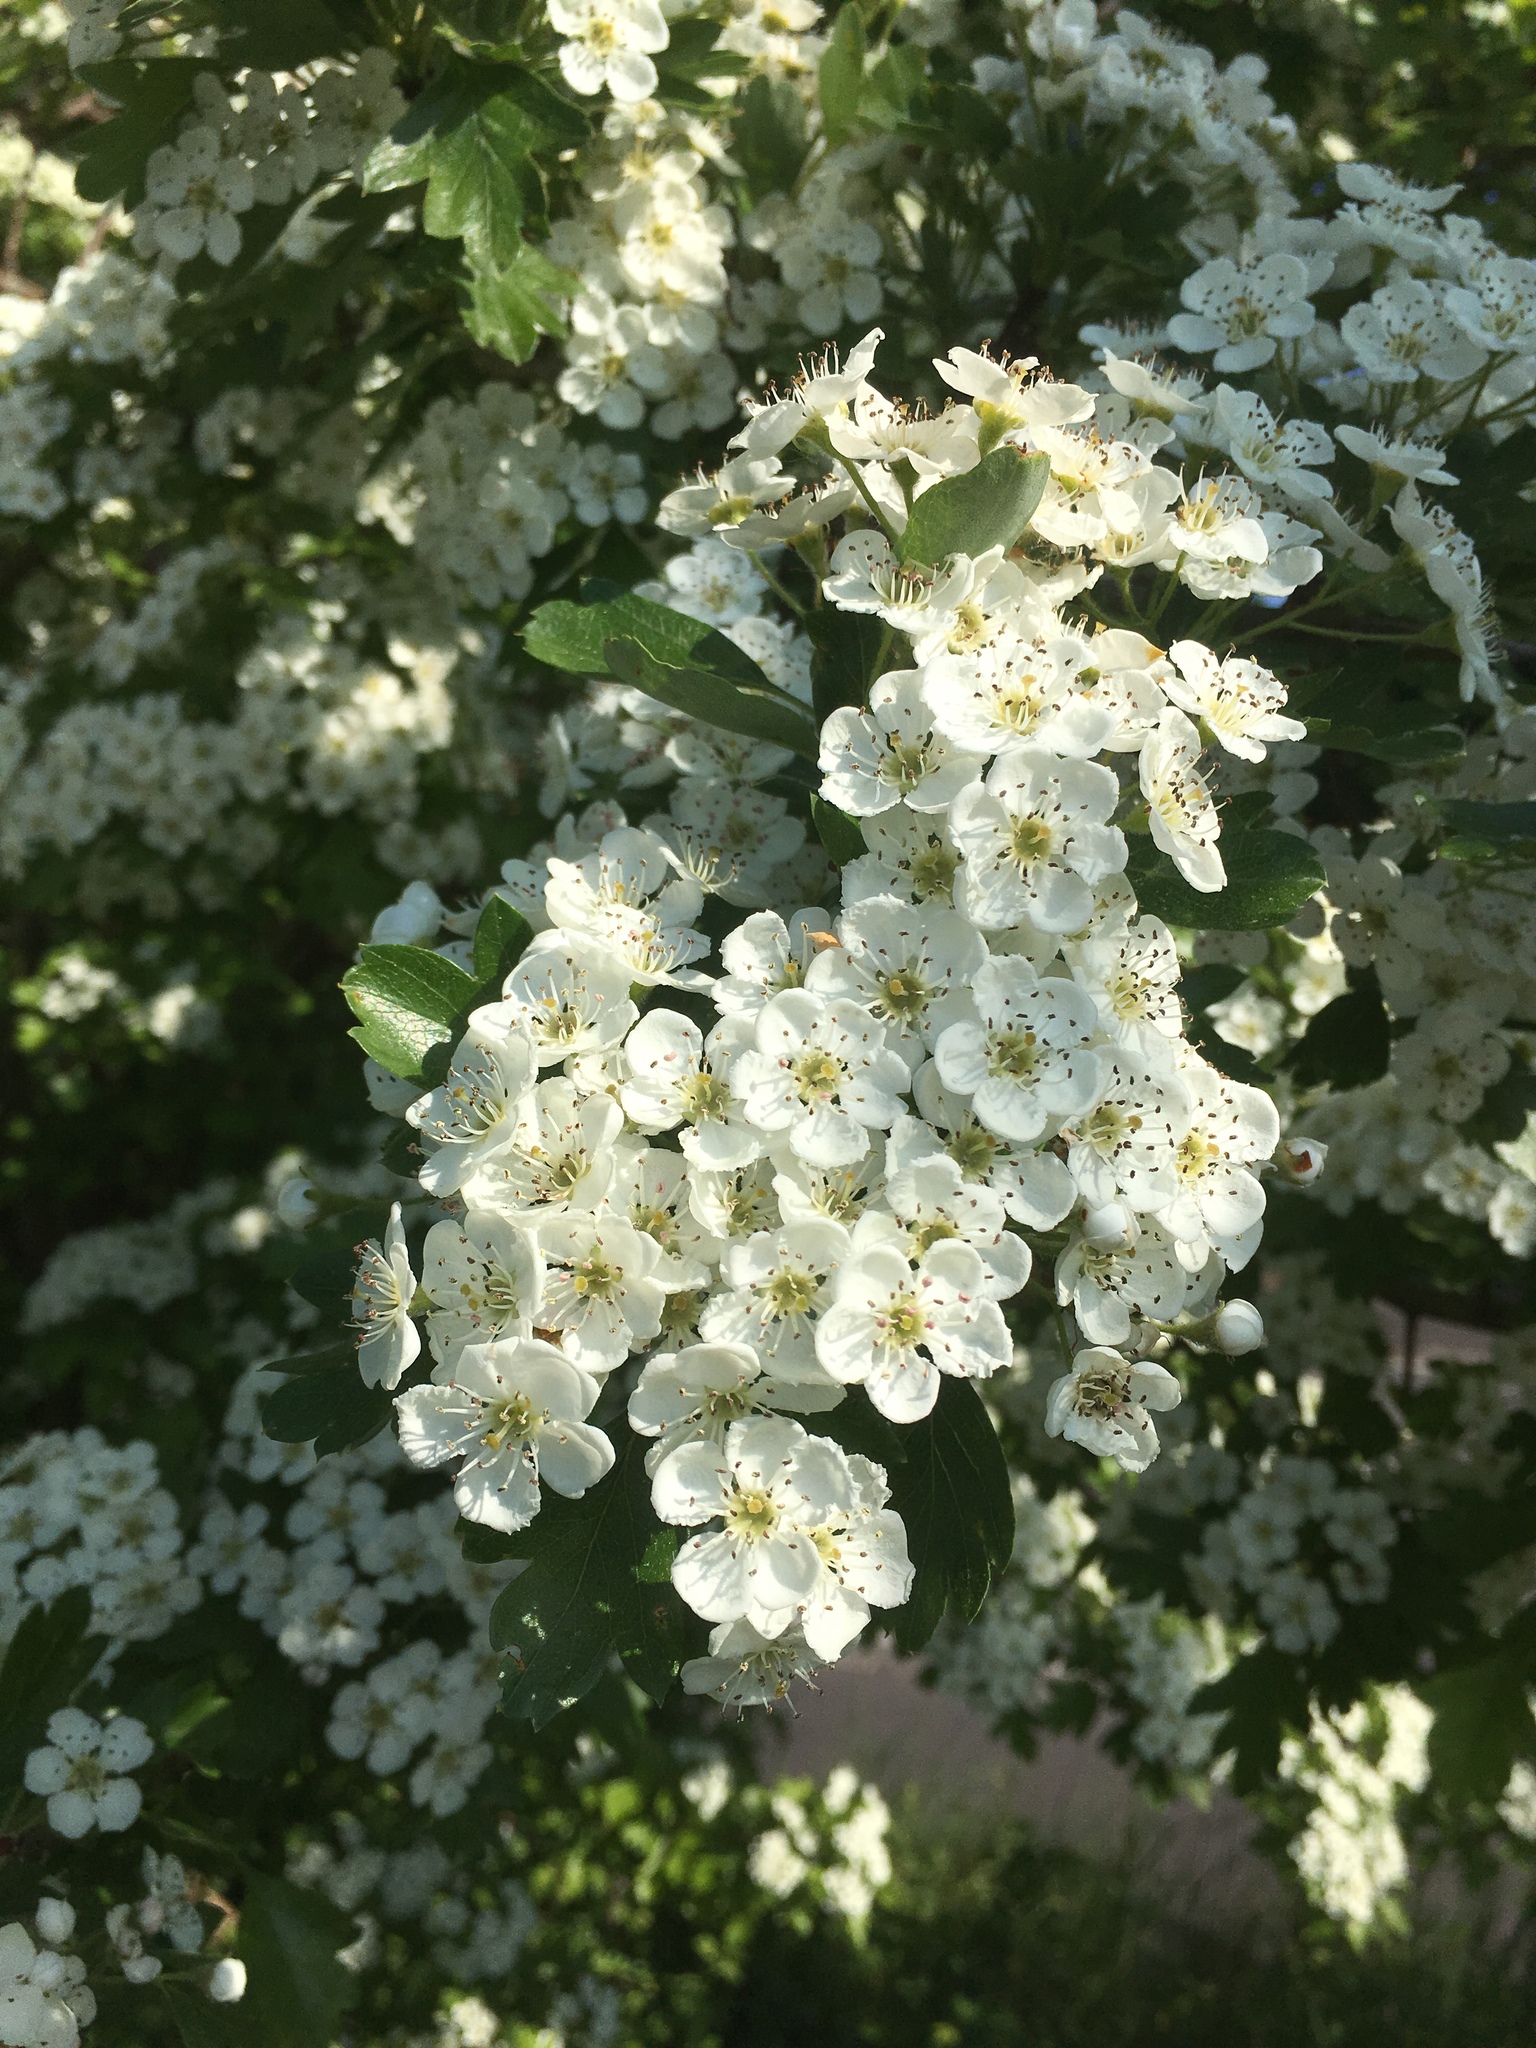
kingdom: Plantae
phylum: Tracheophyta
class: Magnoliopsida
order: Rosales
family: Rosaceae
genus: Crataegus
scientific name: Crataegus monogyna
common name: Hawthorn
